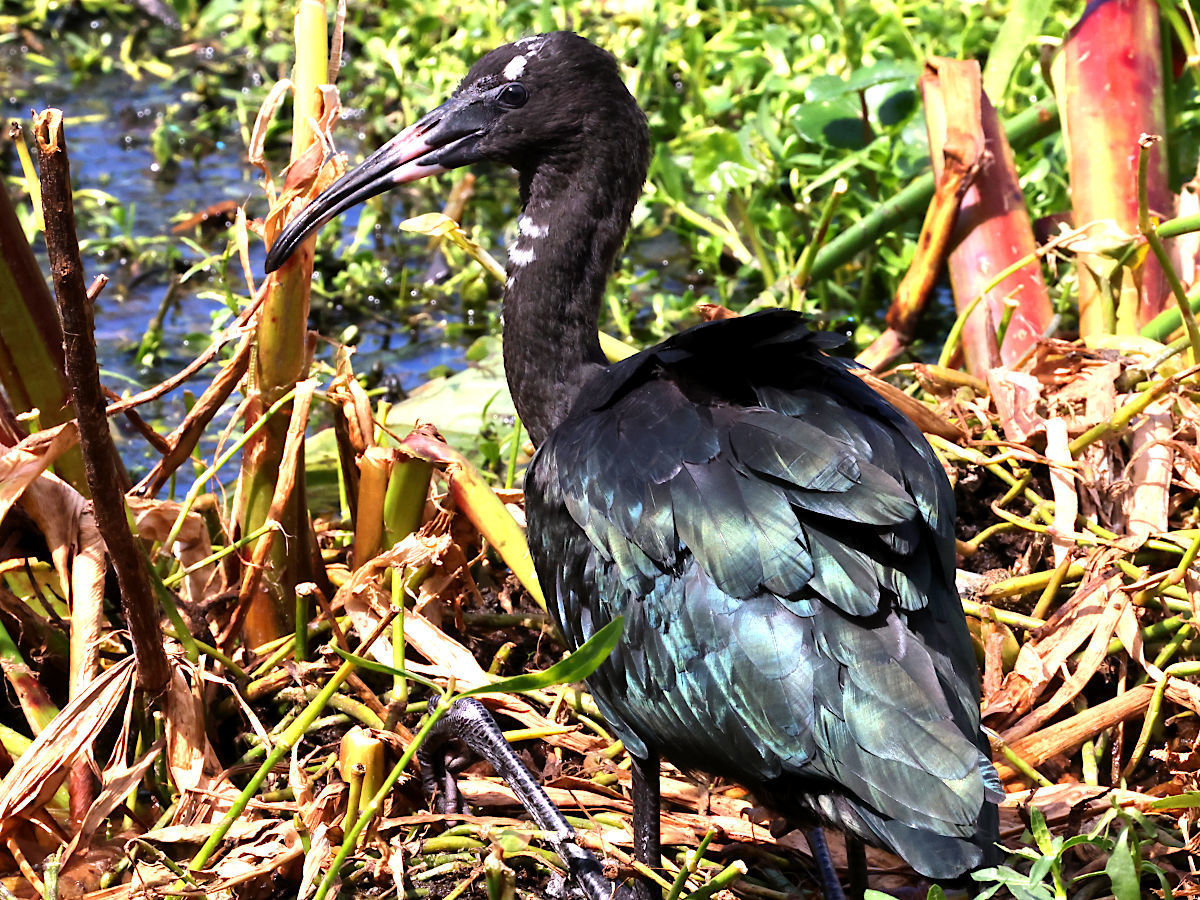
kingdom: Animalia
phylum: Chordata
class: Aves
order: Pelecaniformes
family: Threskiornithidae
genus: Plegadis
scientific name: Plegadis falcinellus
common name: Glossy ibis
